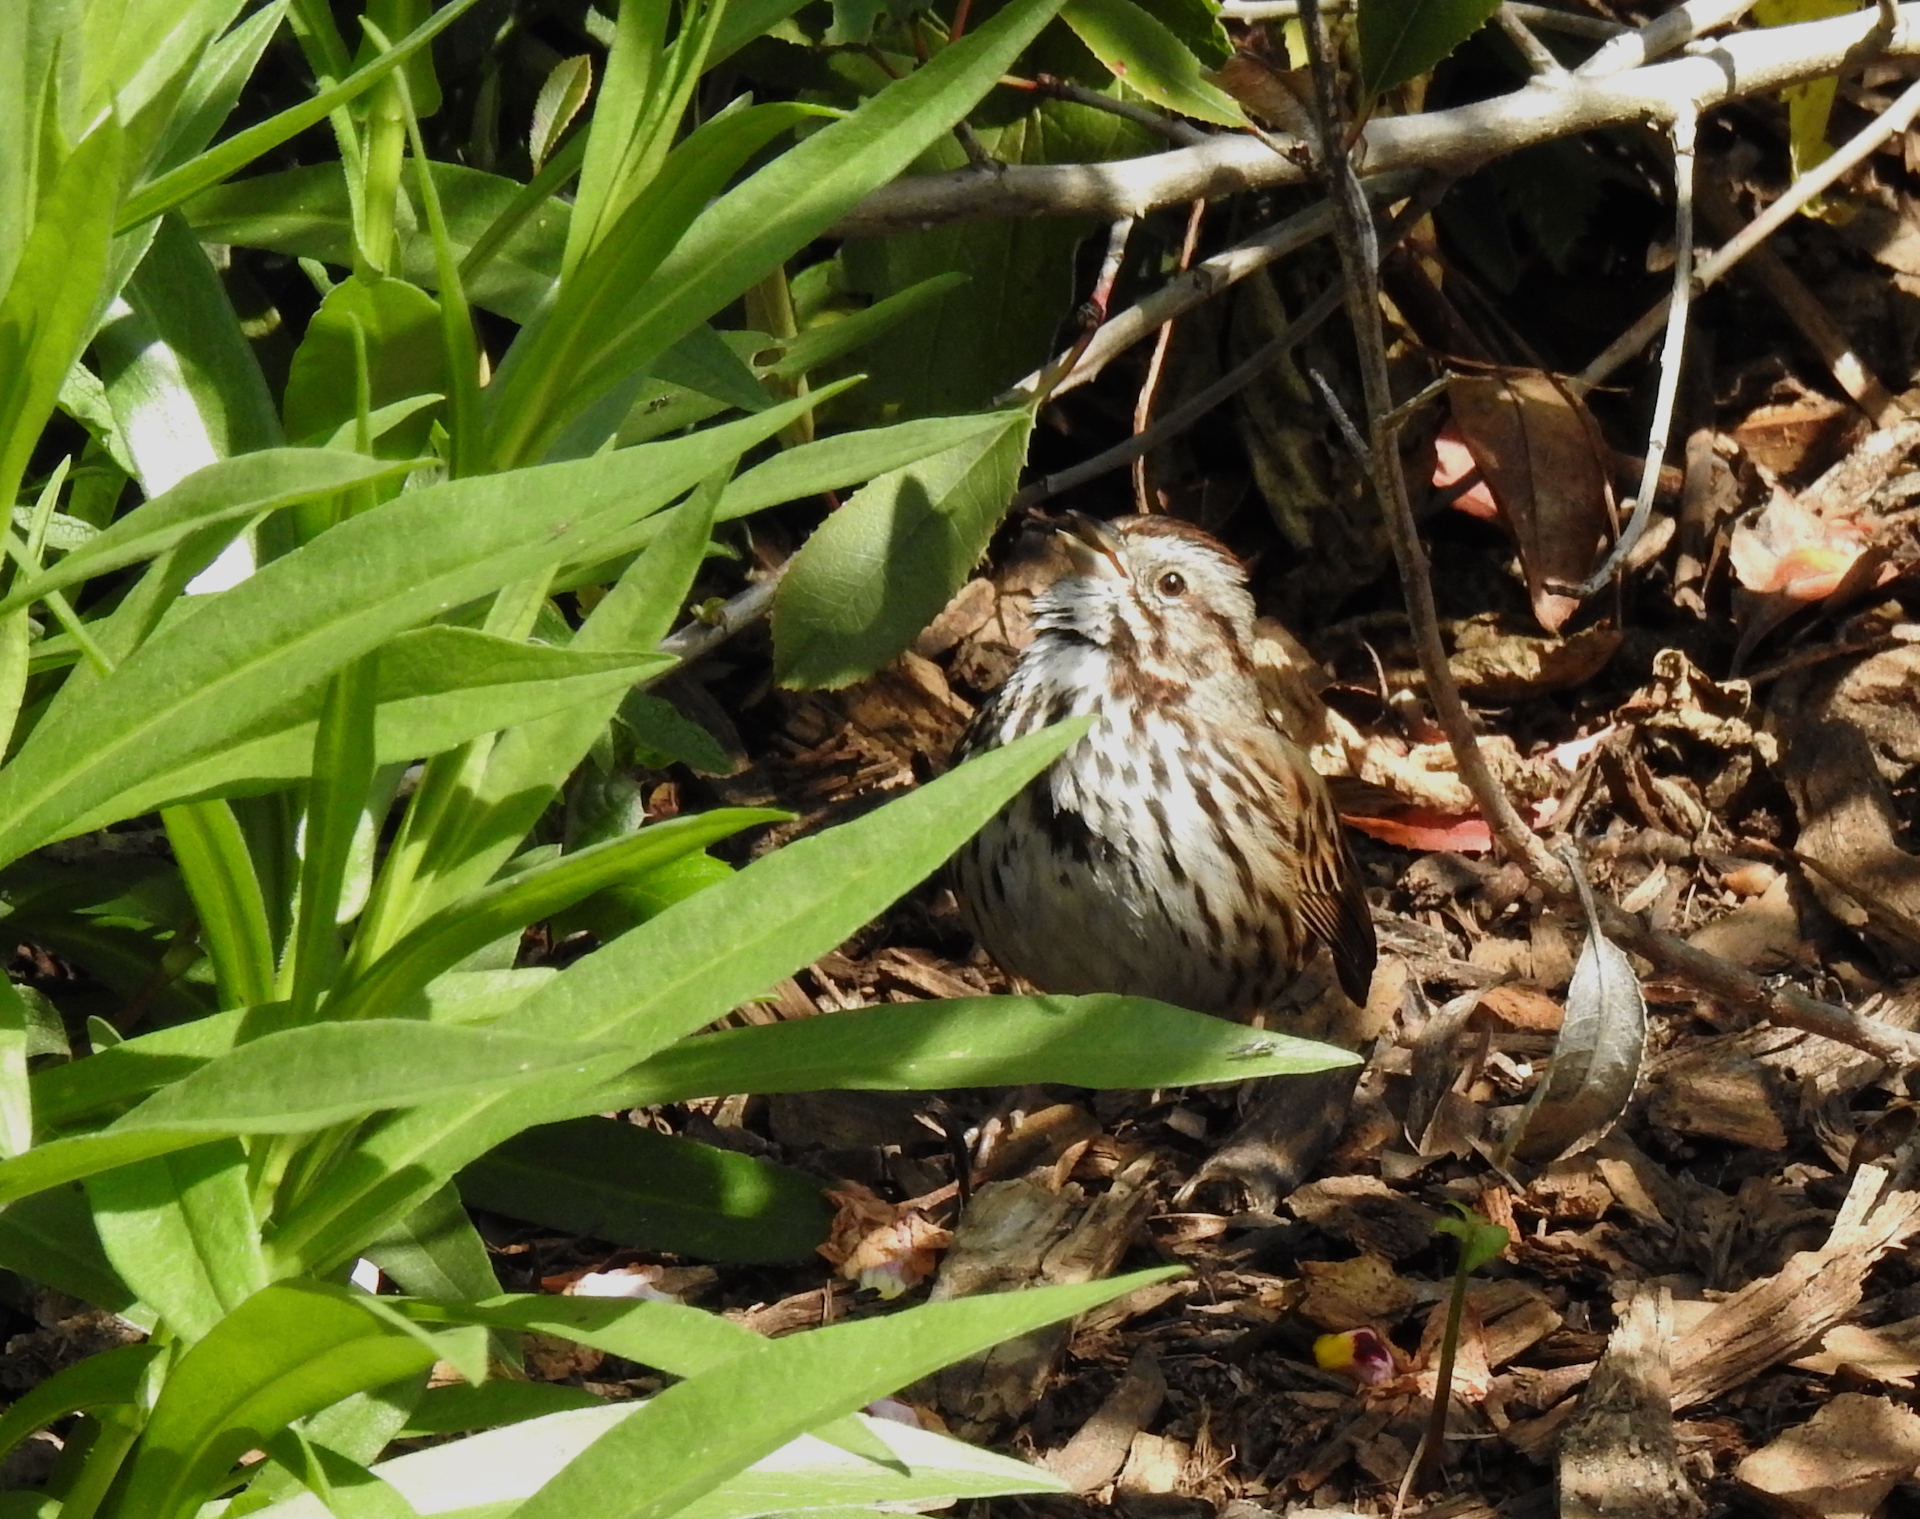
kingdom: Animalia
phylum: Chordata
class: Aves
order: Passeriformes
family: Passerellidae
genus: Melospiza
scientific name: Melospiza melodia
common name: Song sparrow
